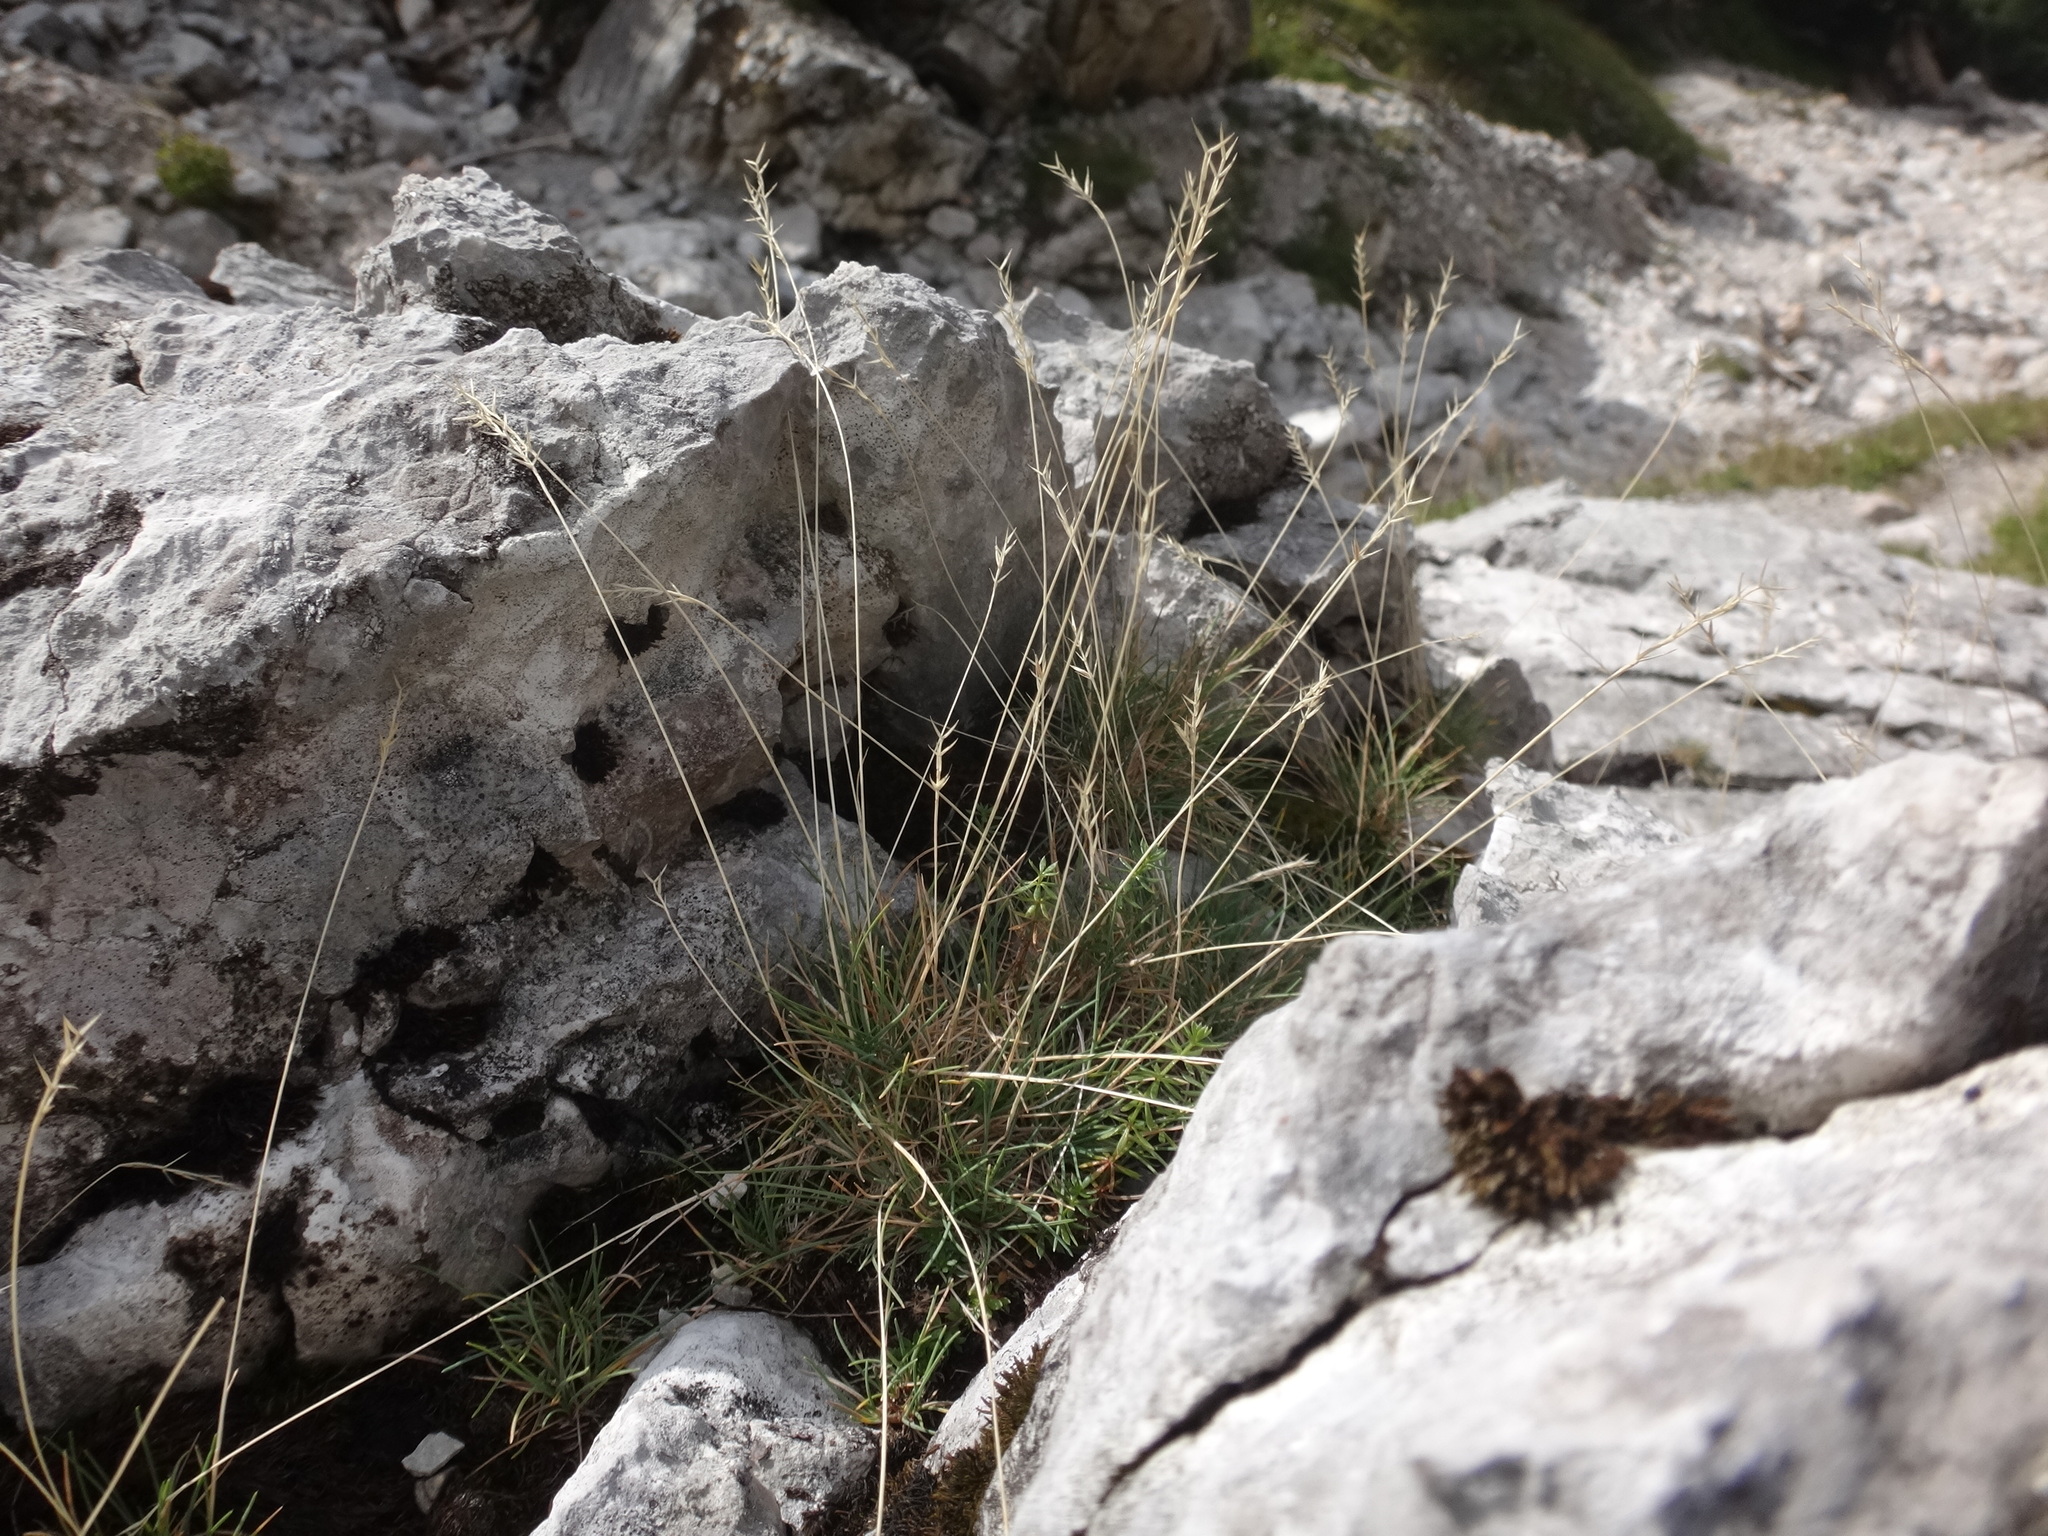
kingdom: Plantae
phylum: Tracheophyta
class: Liliopsida
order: Poales
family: Poaceae
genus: Festuca
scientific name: Festuca airoides
